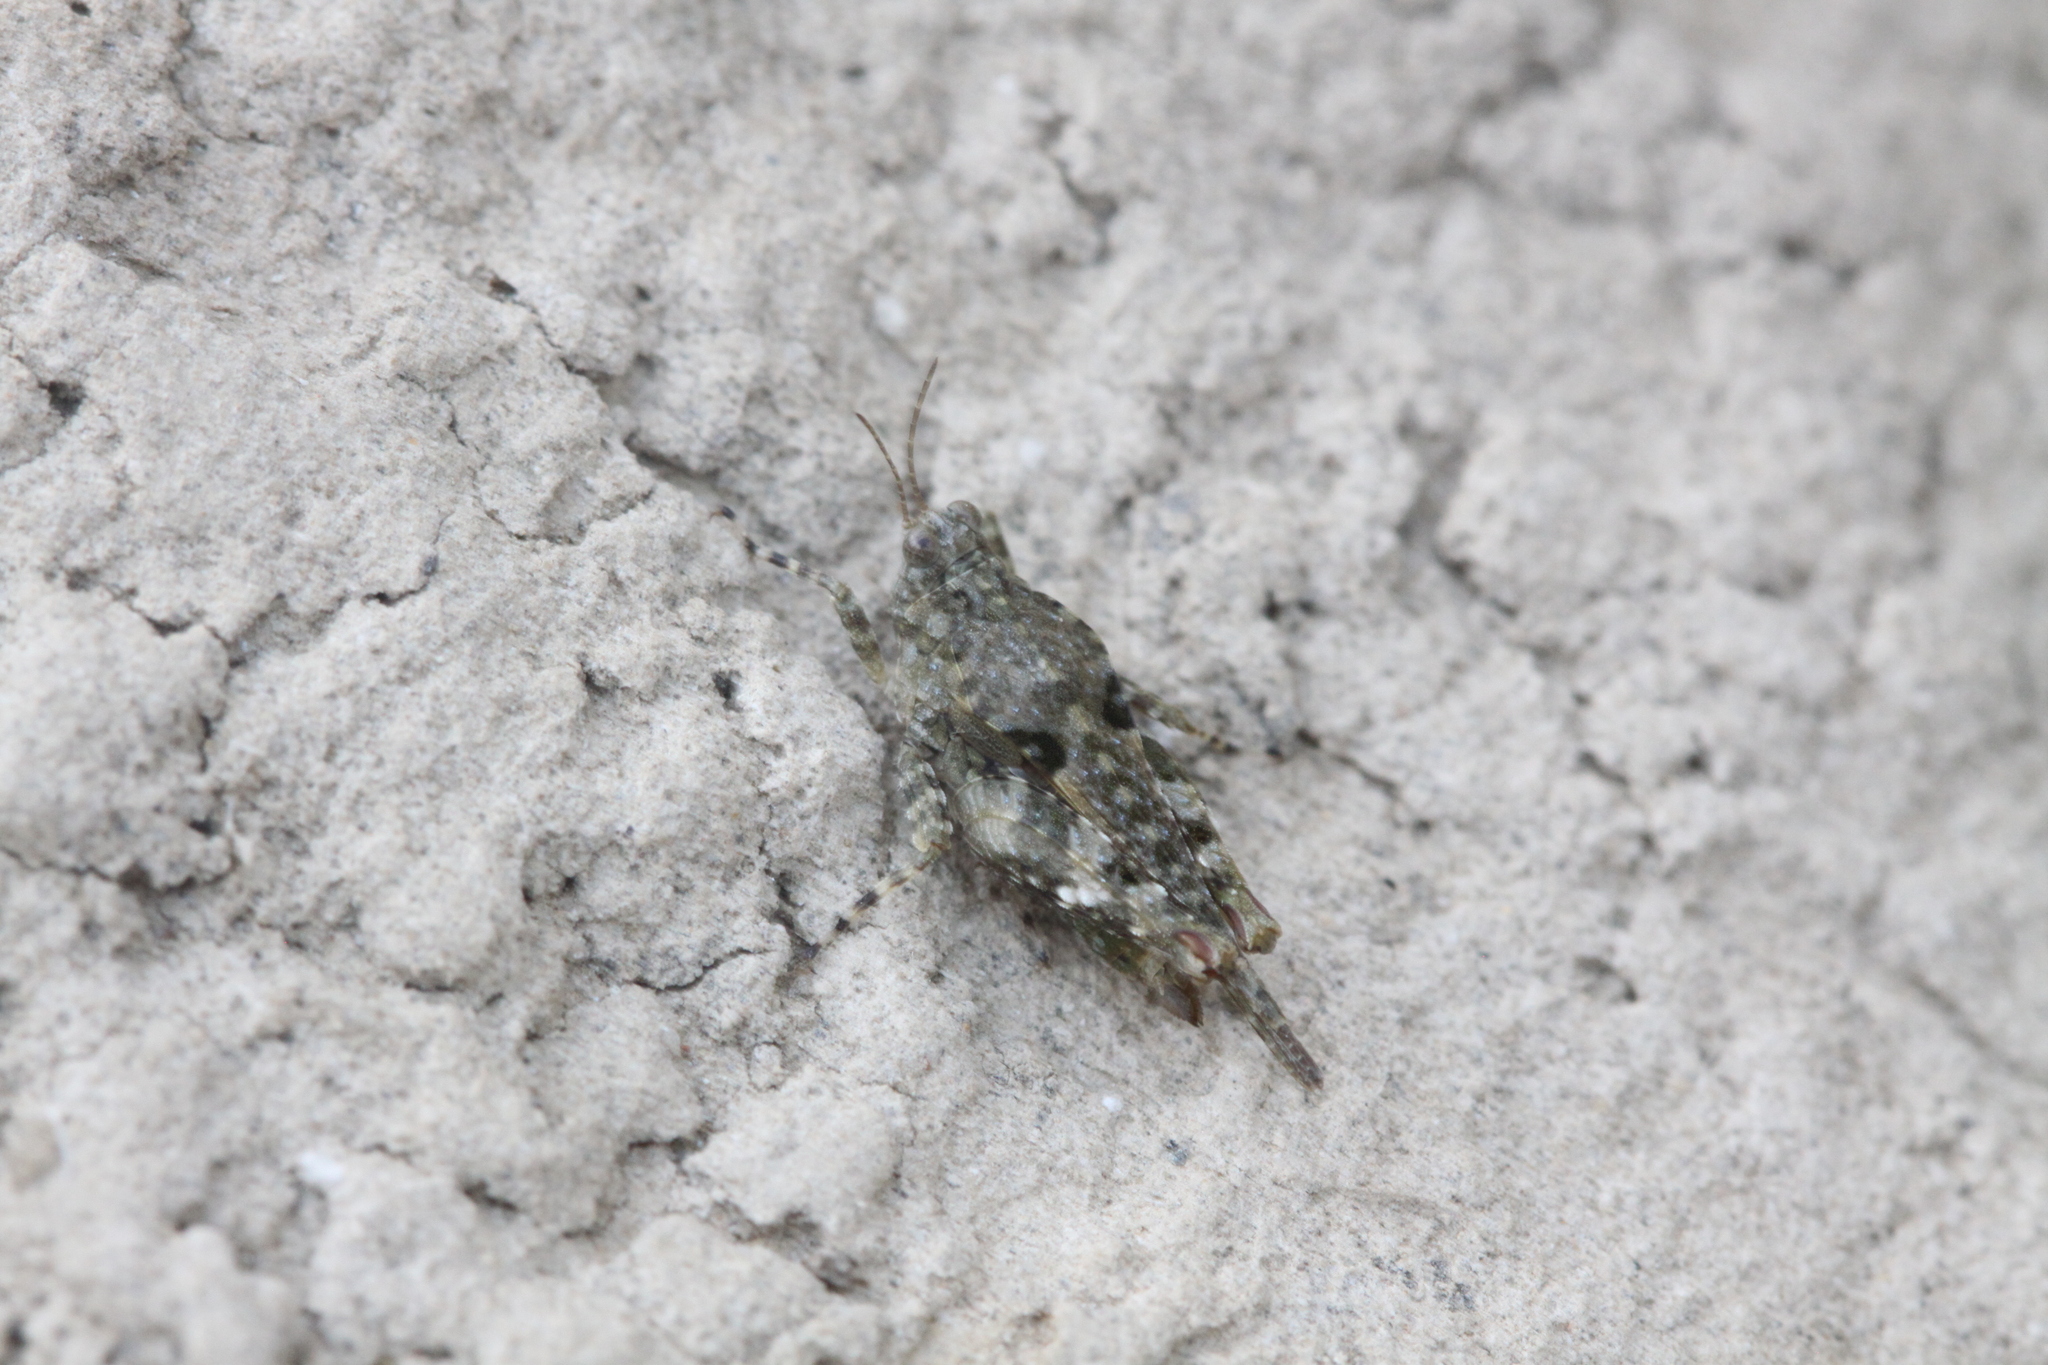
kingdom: Animalia
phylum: Arthropoda
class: Insecta
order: Orthoptera
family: Tetrigidae
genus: Paratettix
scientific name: Paratettix meridionalis
